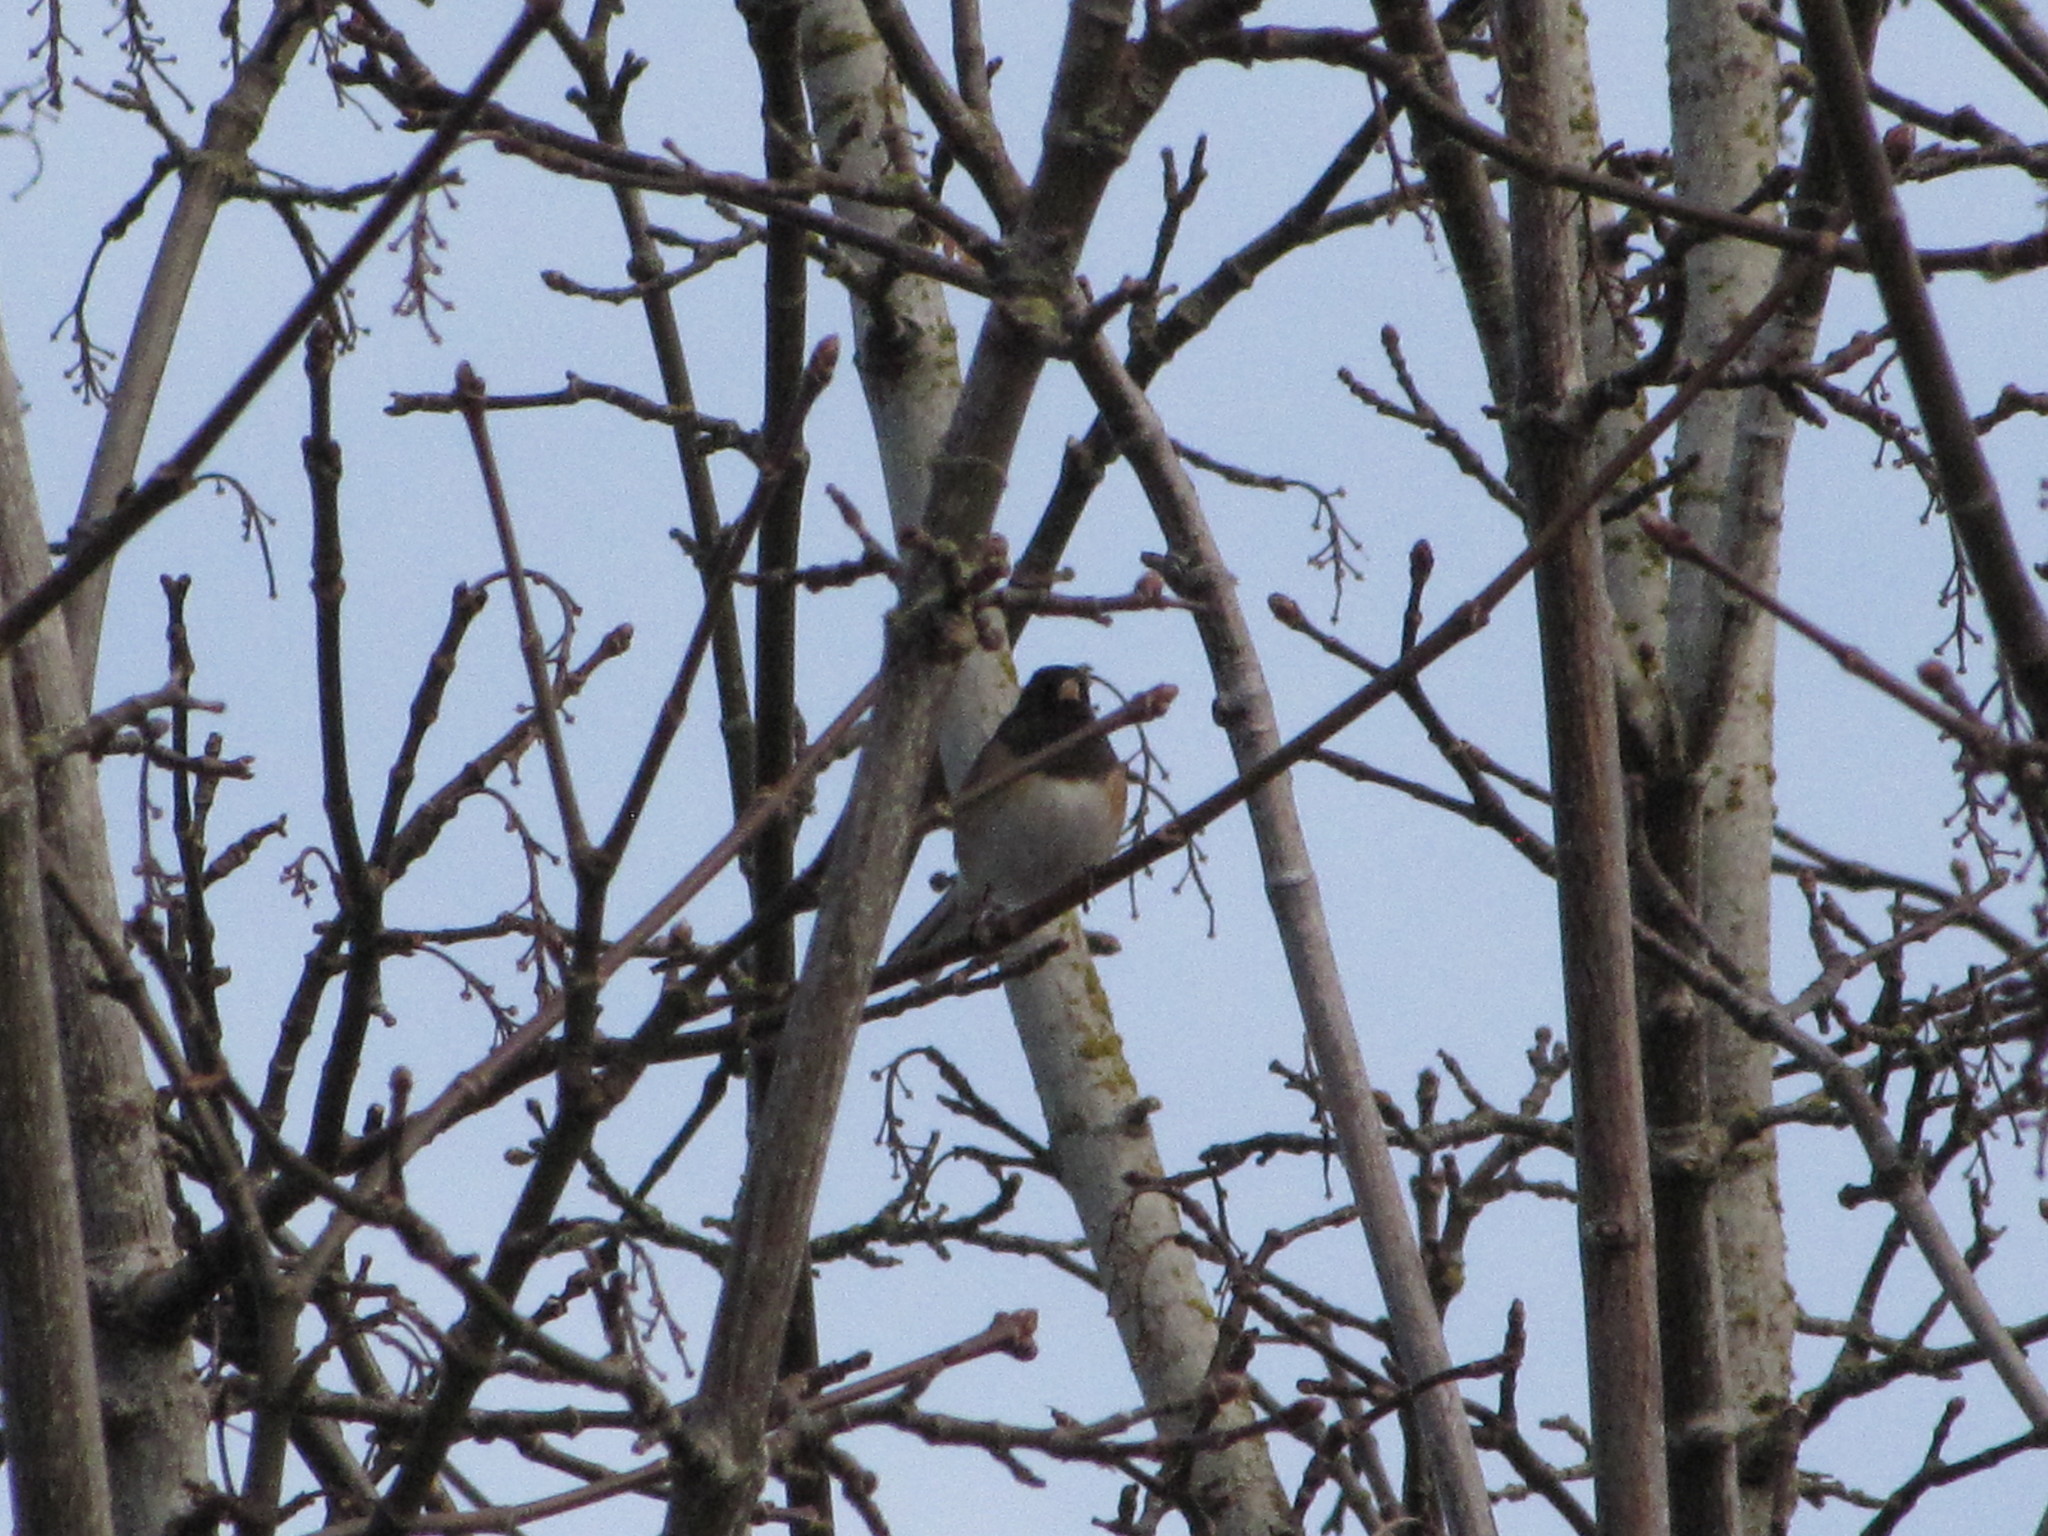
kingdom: Animalia
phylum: Chordata
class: Aves
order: Passeriformes
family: Passerellidae
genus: Junco
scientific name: Junco hyemalis
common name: Dark-eyed junco
